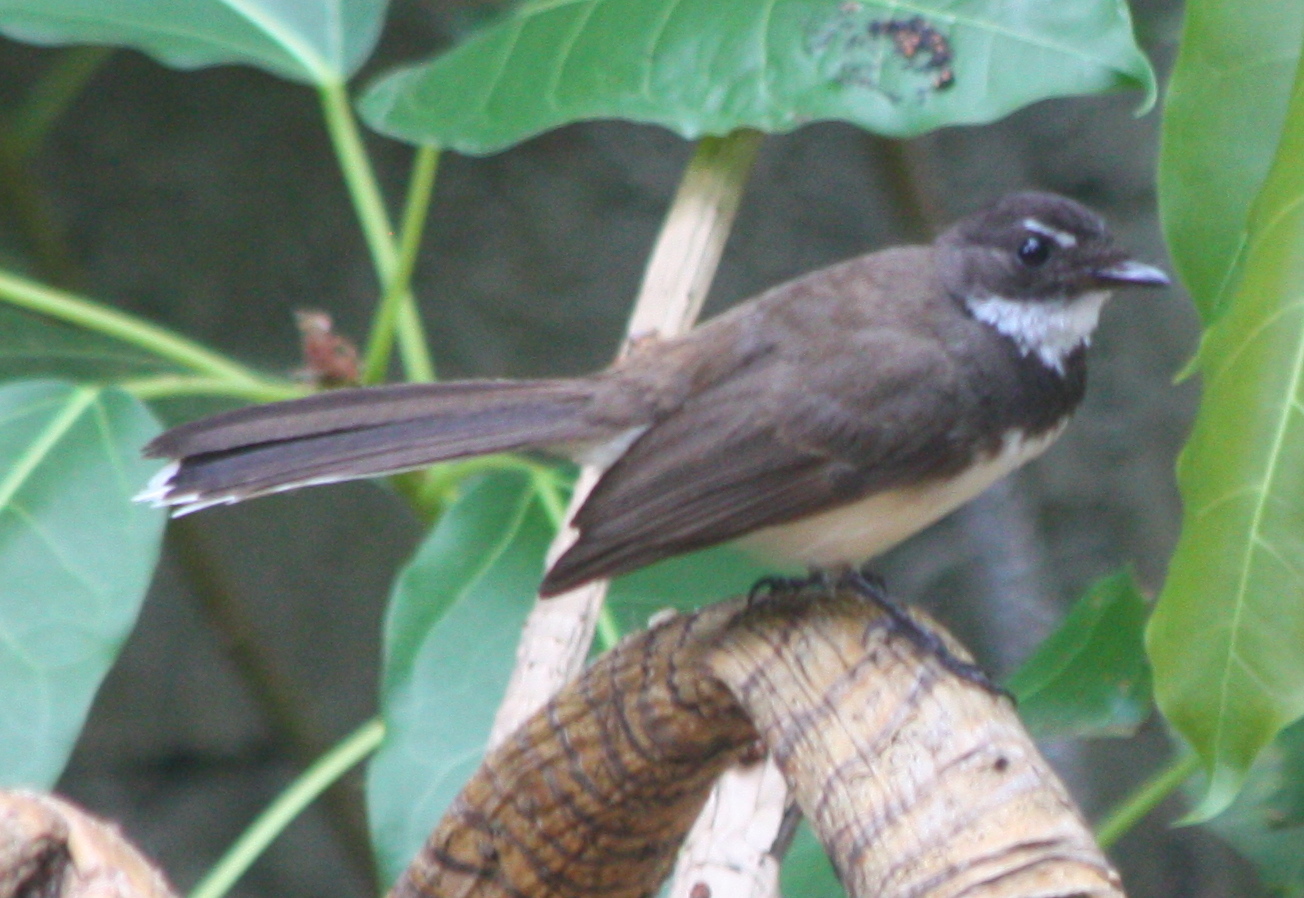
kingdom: Animalia
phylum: Chordata
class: Aves
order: Passeriformes
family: Rhipiduridae
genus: Rhipidura
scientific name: Rhipidura javanica
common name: Pied fantail
